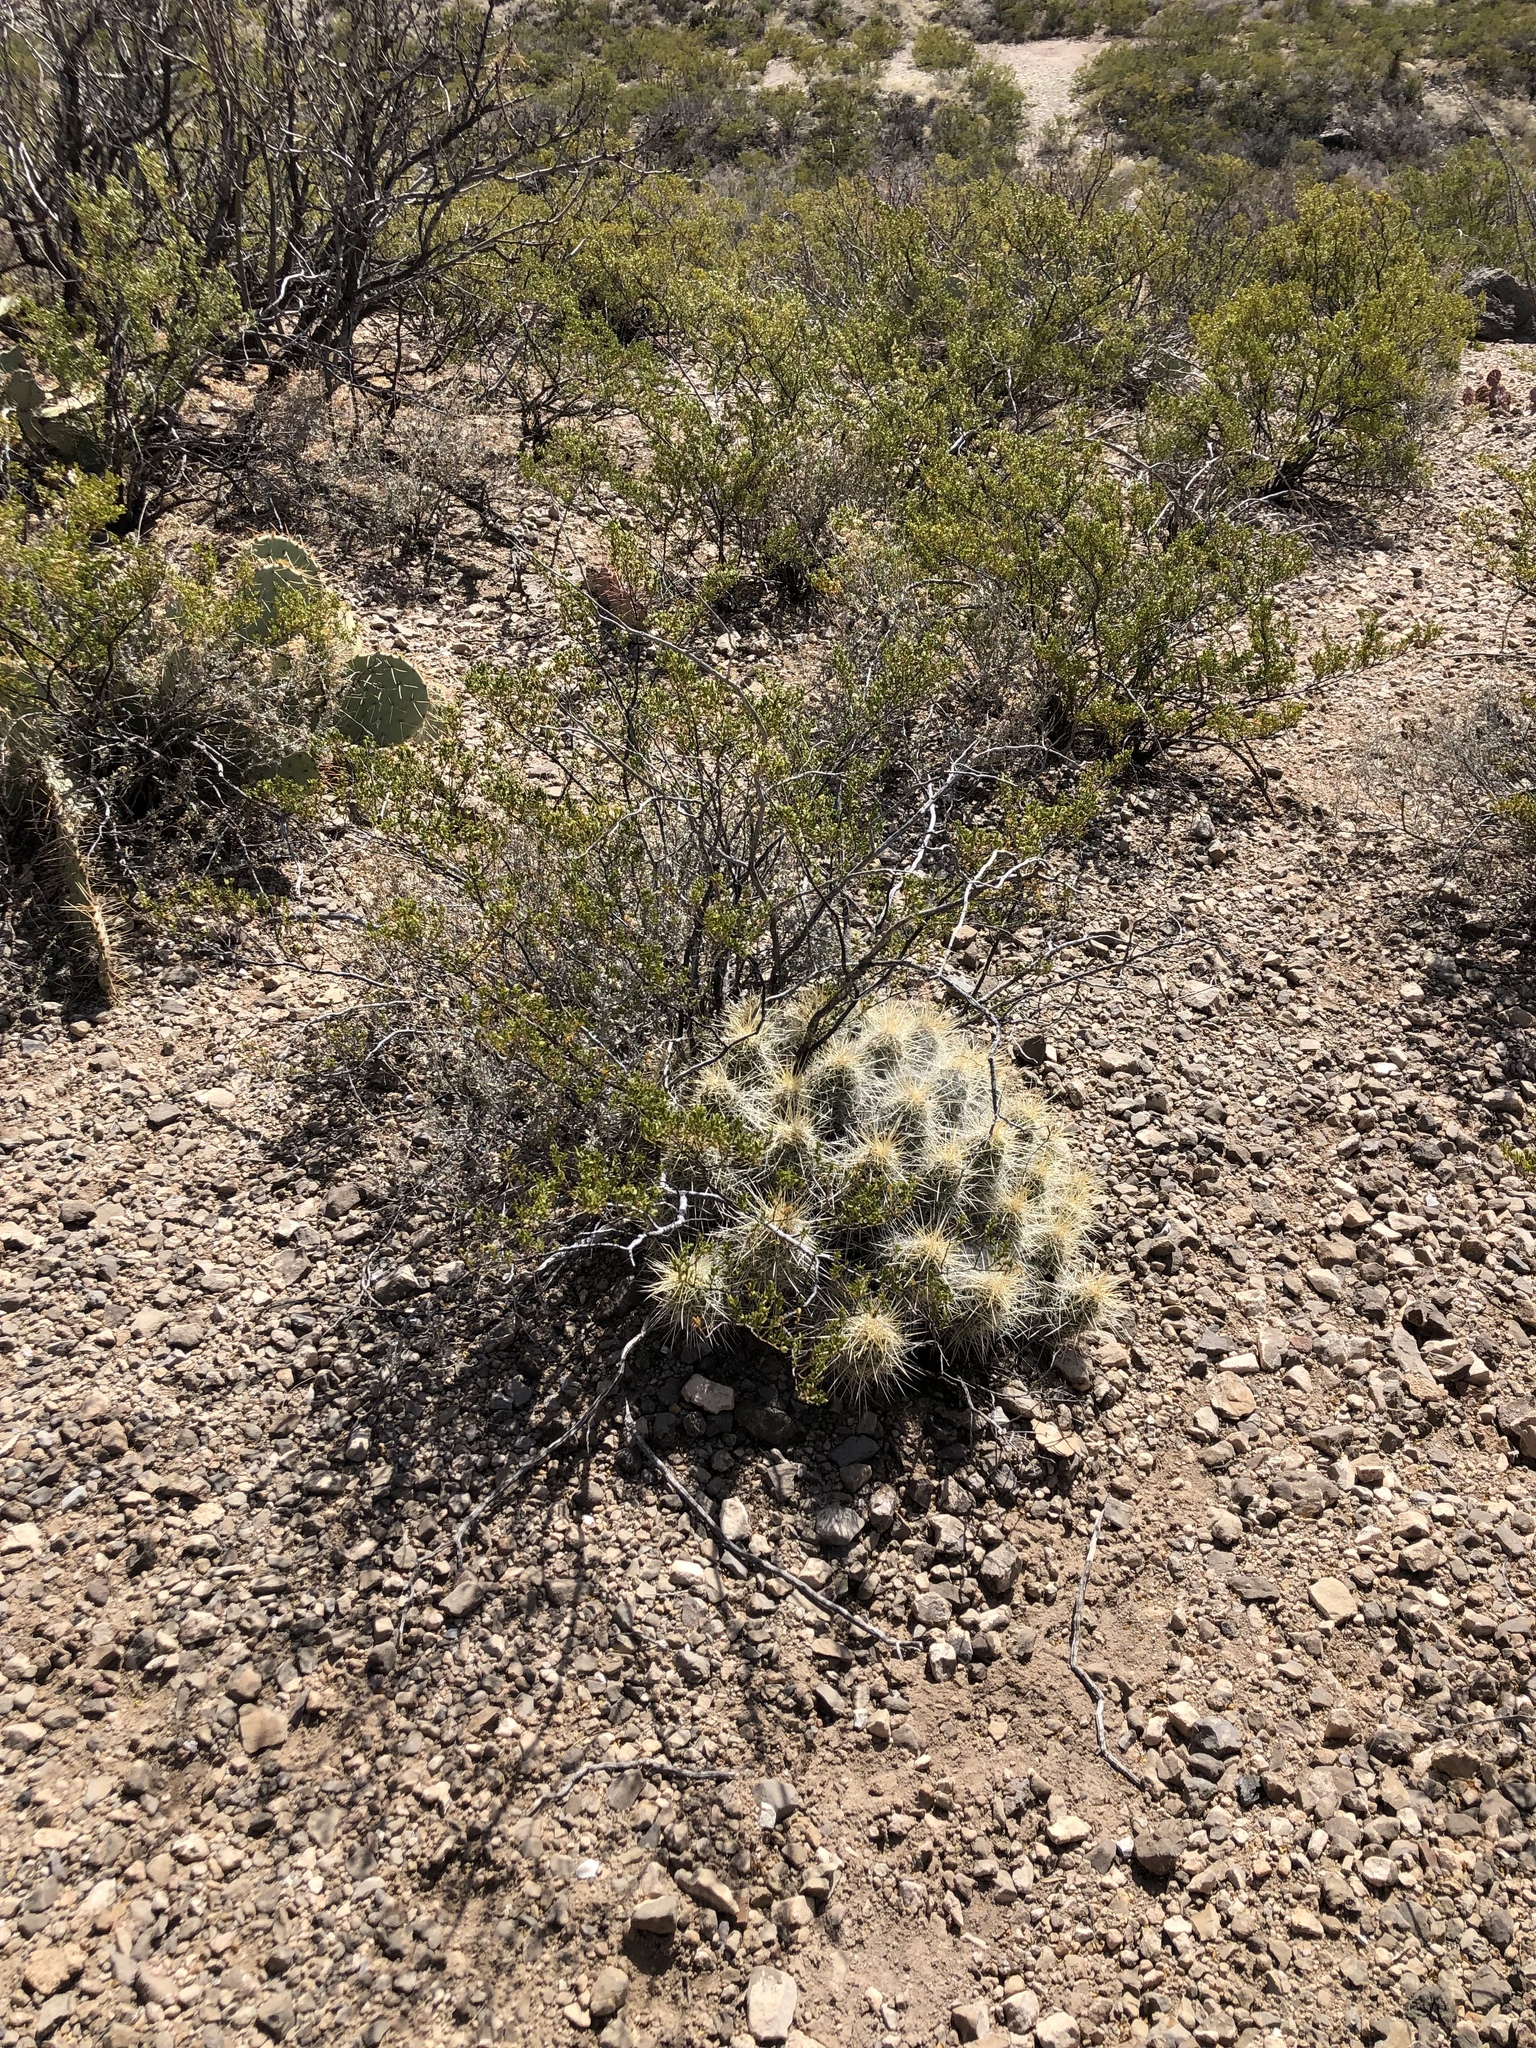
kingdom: Plantae
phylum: Tracheophyta
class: Magnoliopsida
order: Caryophyllales
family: Cactaceae
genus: Echinocereus
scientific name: Echinocereus stramineus
